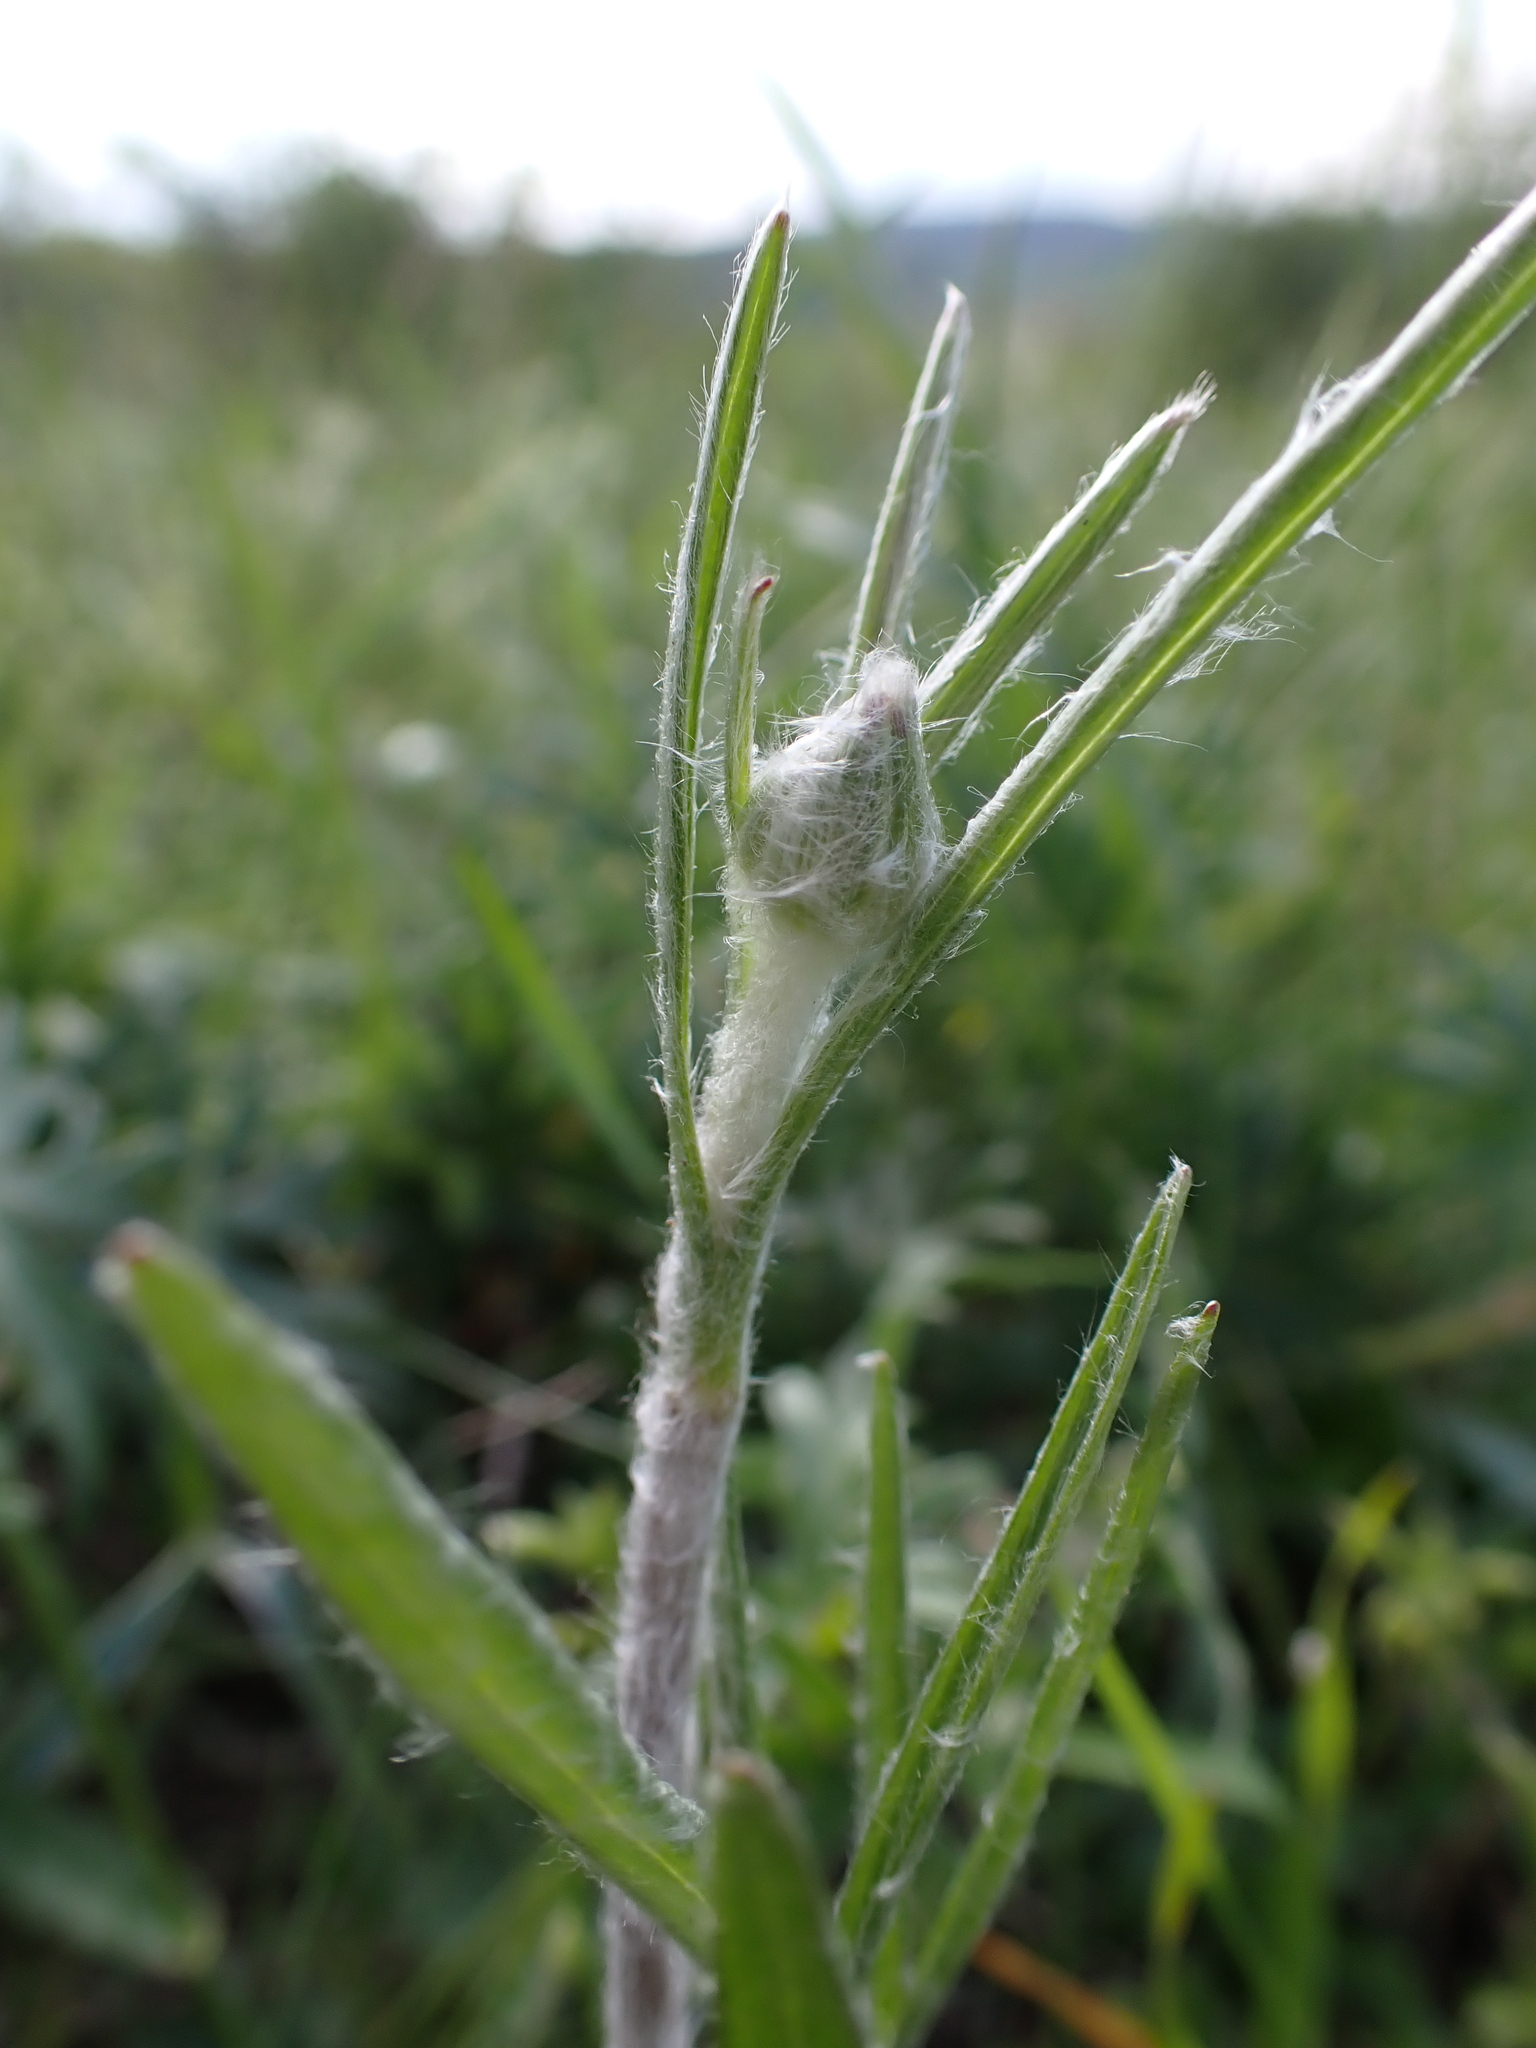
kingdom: Plantae
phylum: Tracheophyta
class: Magnoliopsida
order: Ranunculales
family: Ranunculaceae
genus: Ranunculus
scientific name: Ranunculus illyricus
